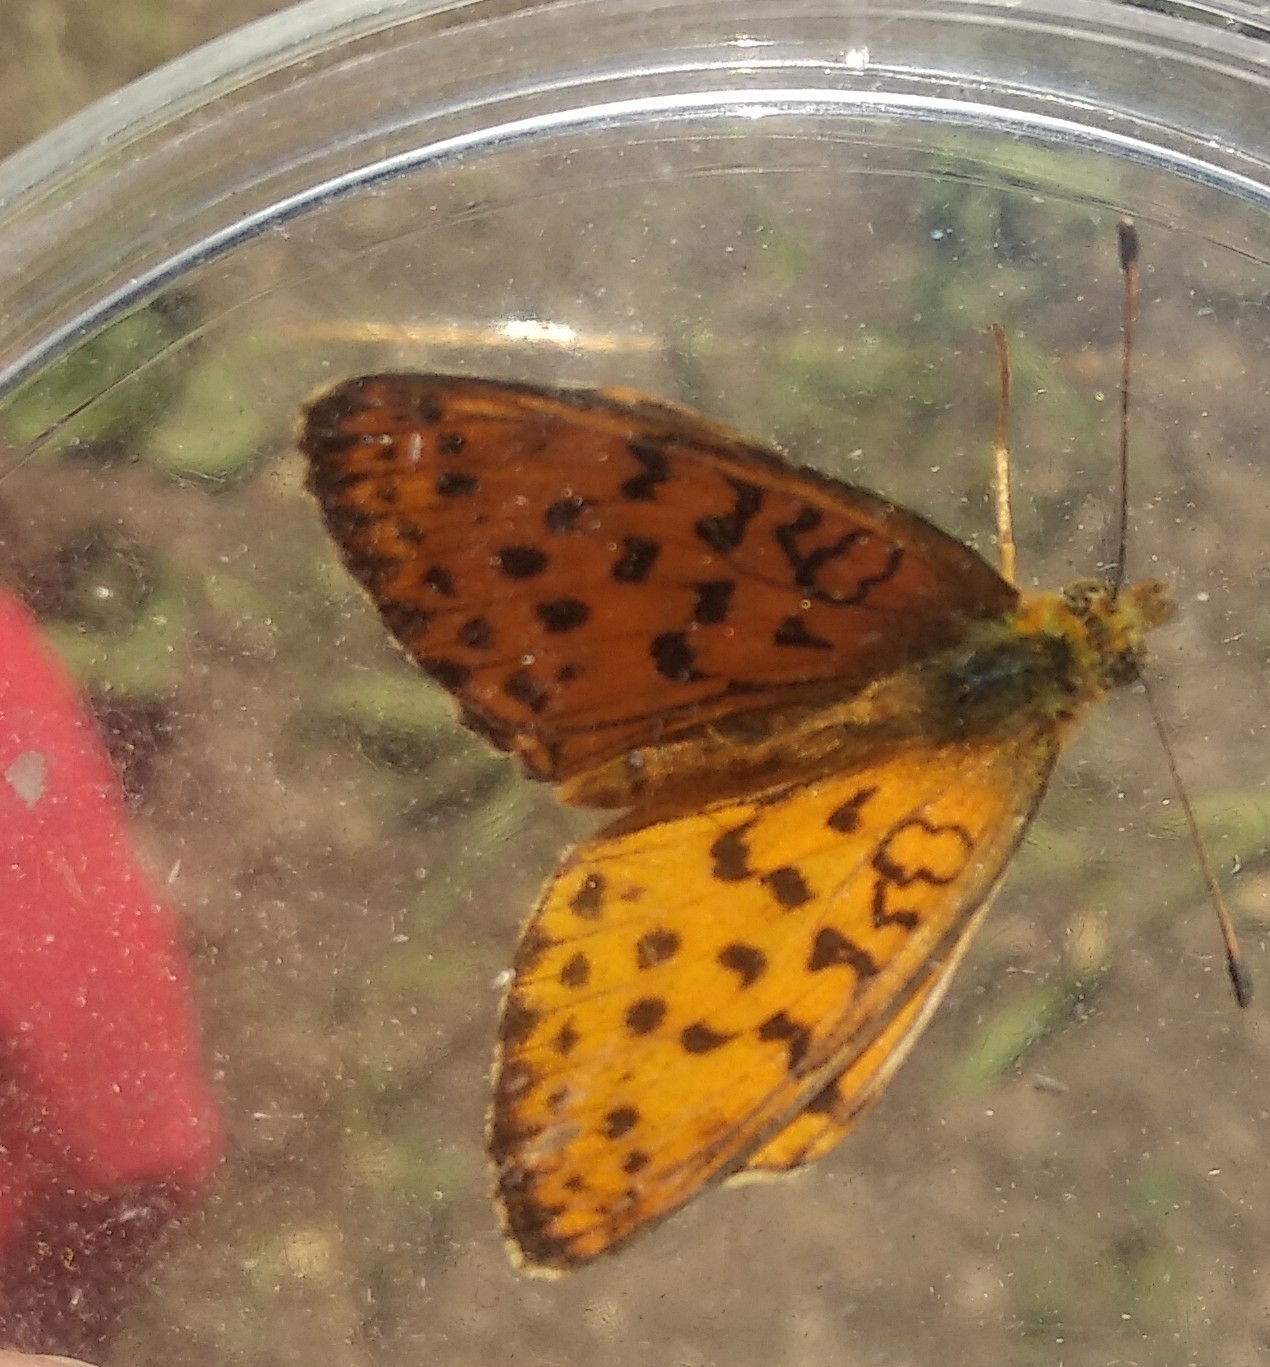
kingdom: Animalia
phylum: Arthropoda
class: Insecta
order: Lepidoptera
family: Nymphalidae
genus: Brenthis
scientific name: Brenthis daphne
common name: Marbled fritillary
